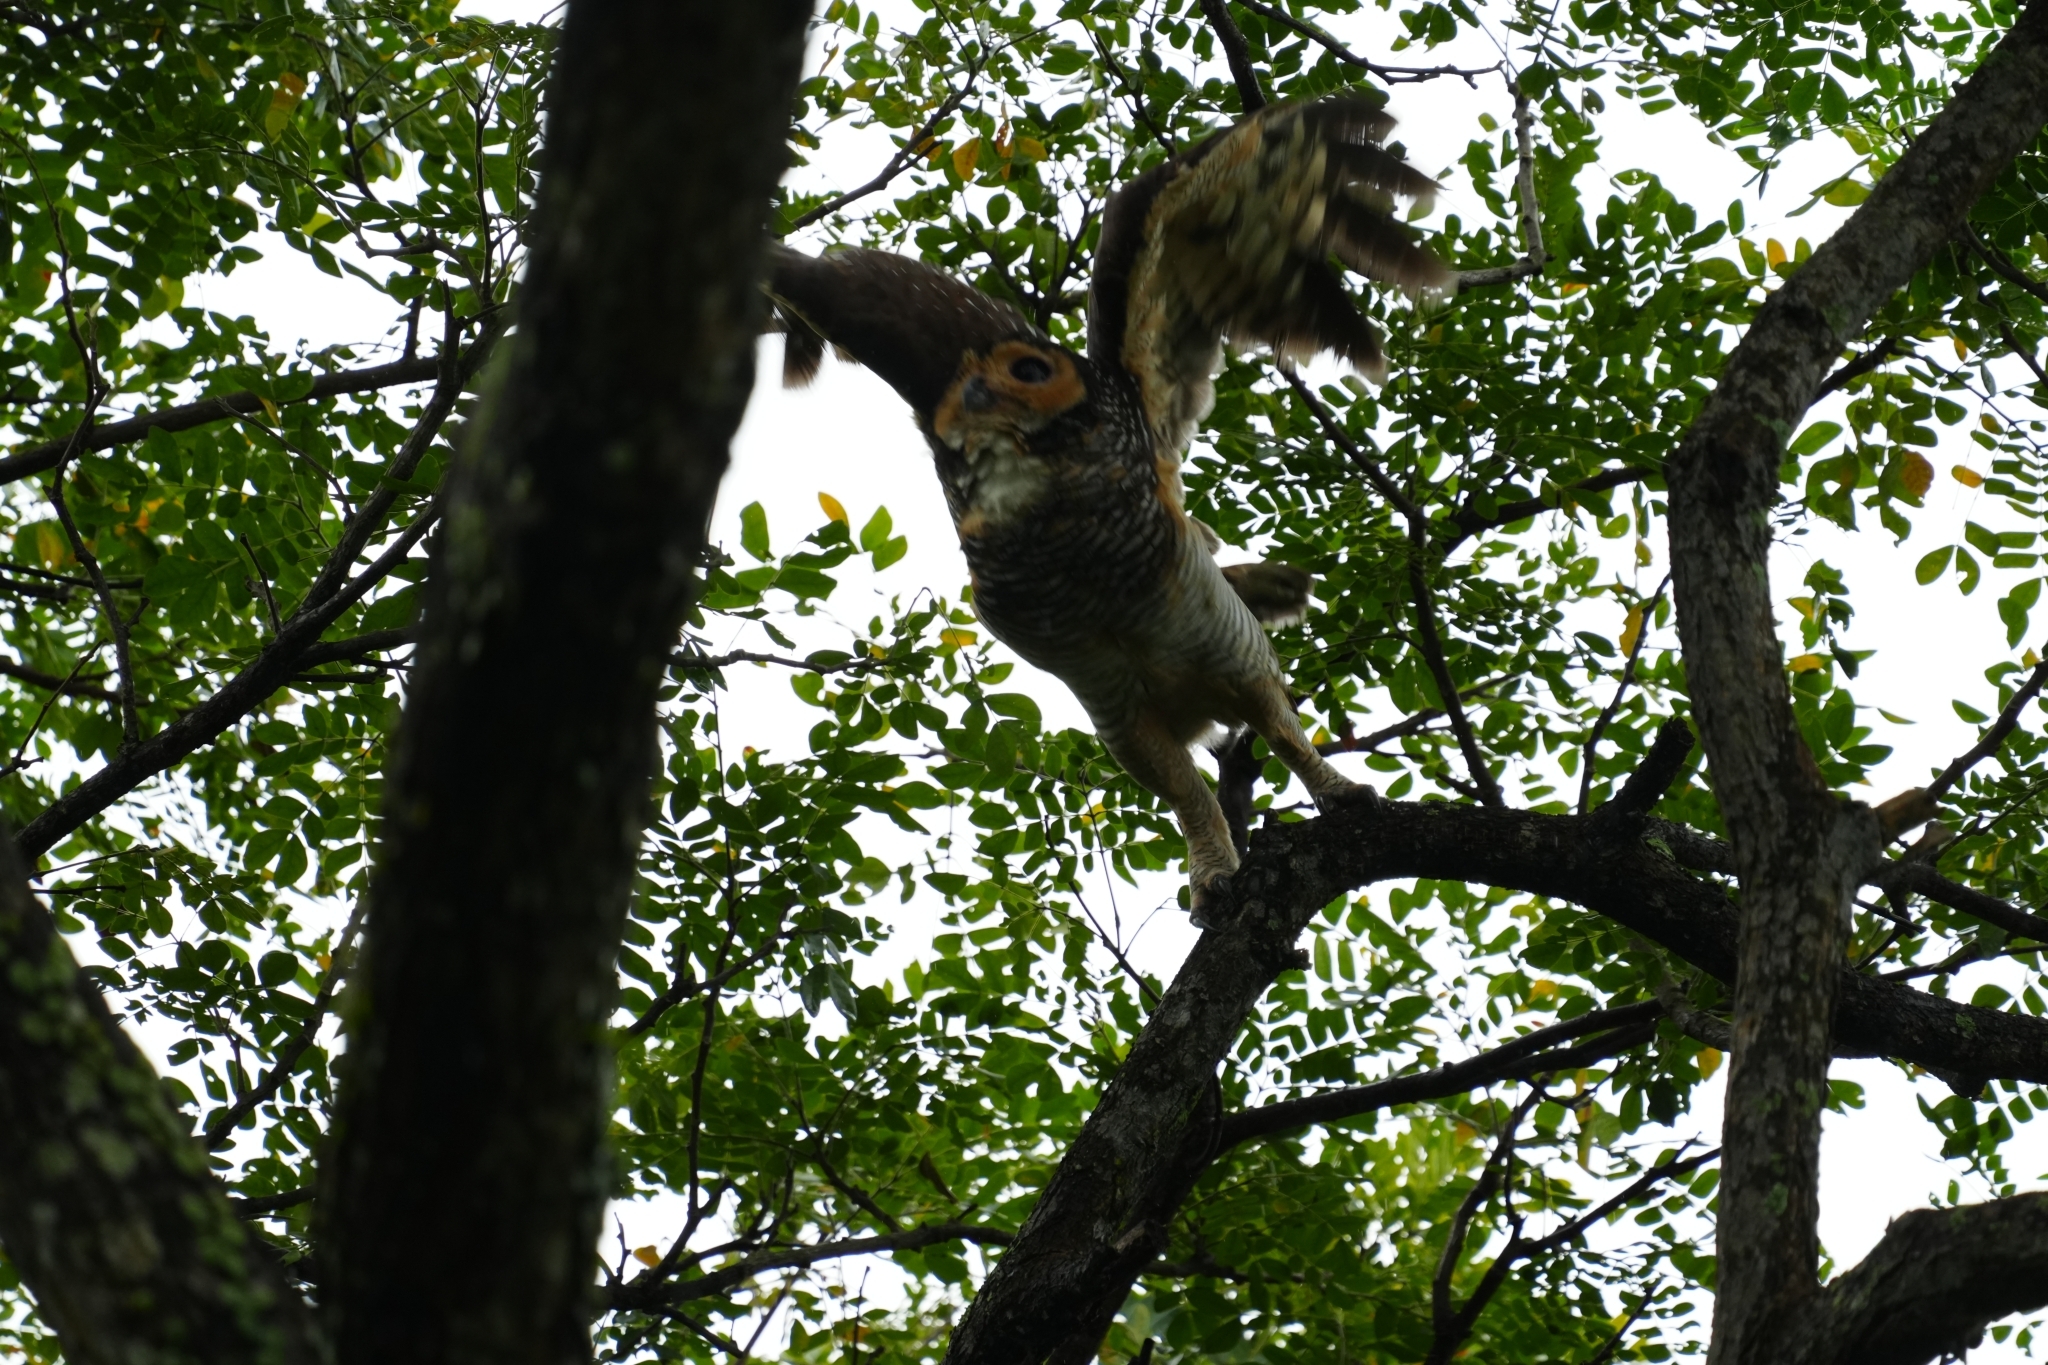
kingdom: Animalia
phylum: Chordata
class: Aves
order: Strigiformes
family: Strigidae
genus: Strix
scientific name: Strix seloputo
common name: Spotted wood owl
